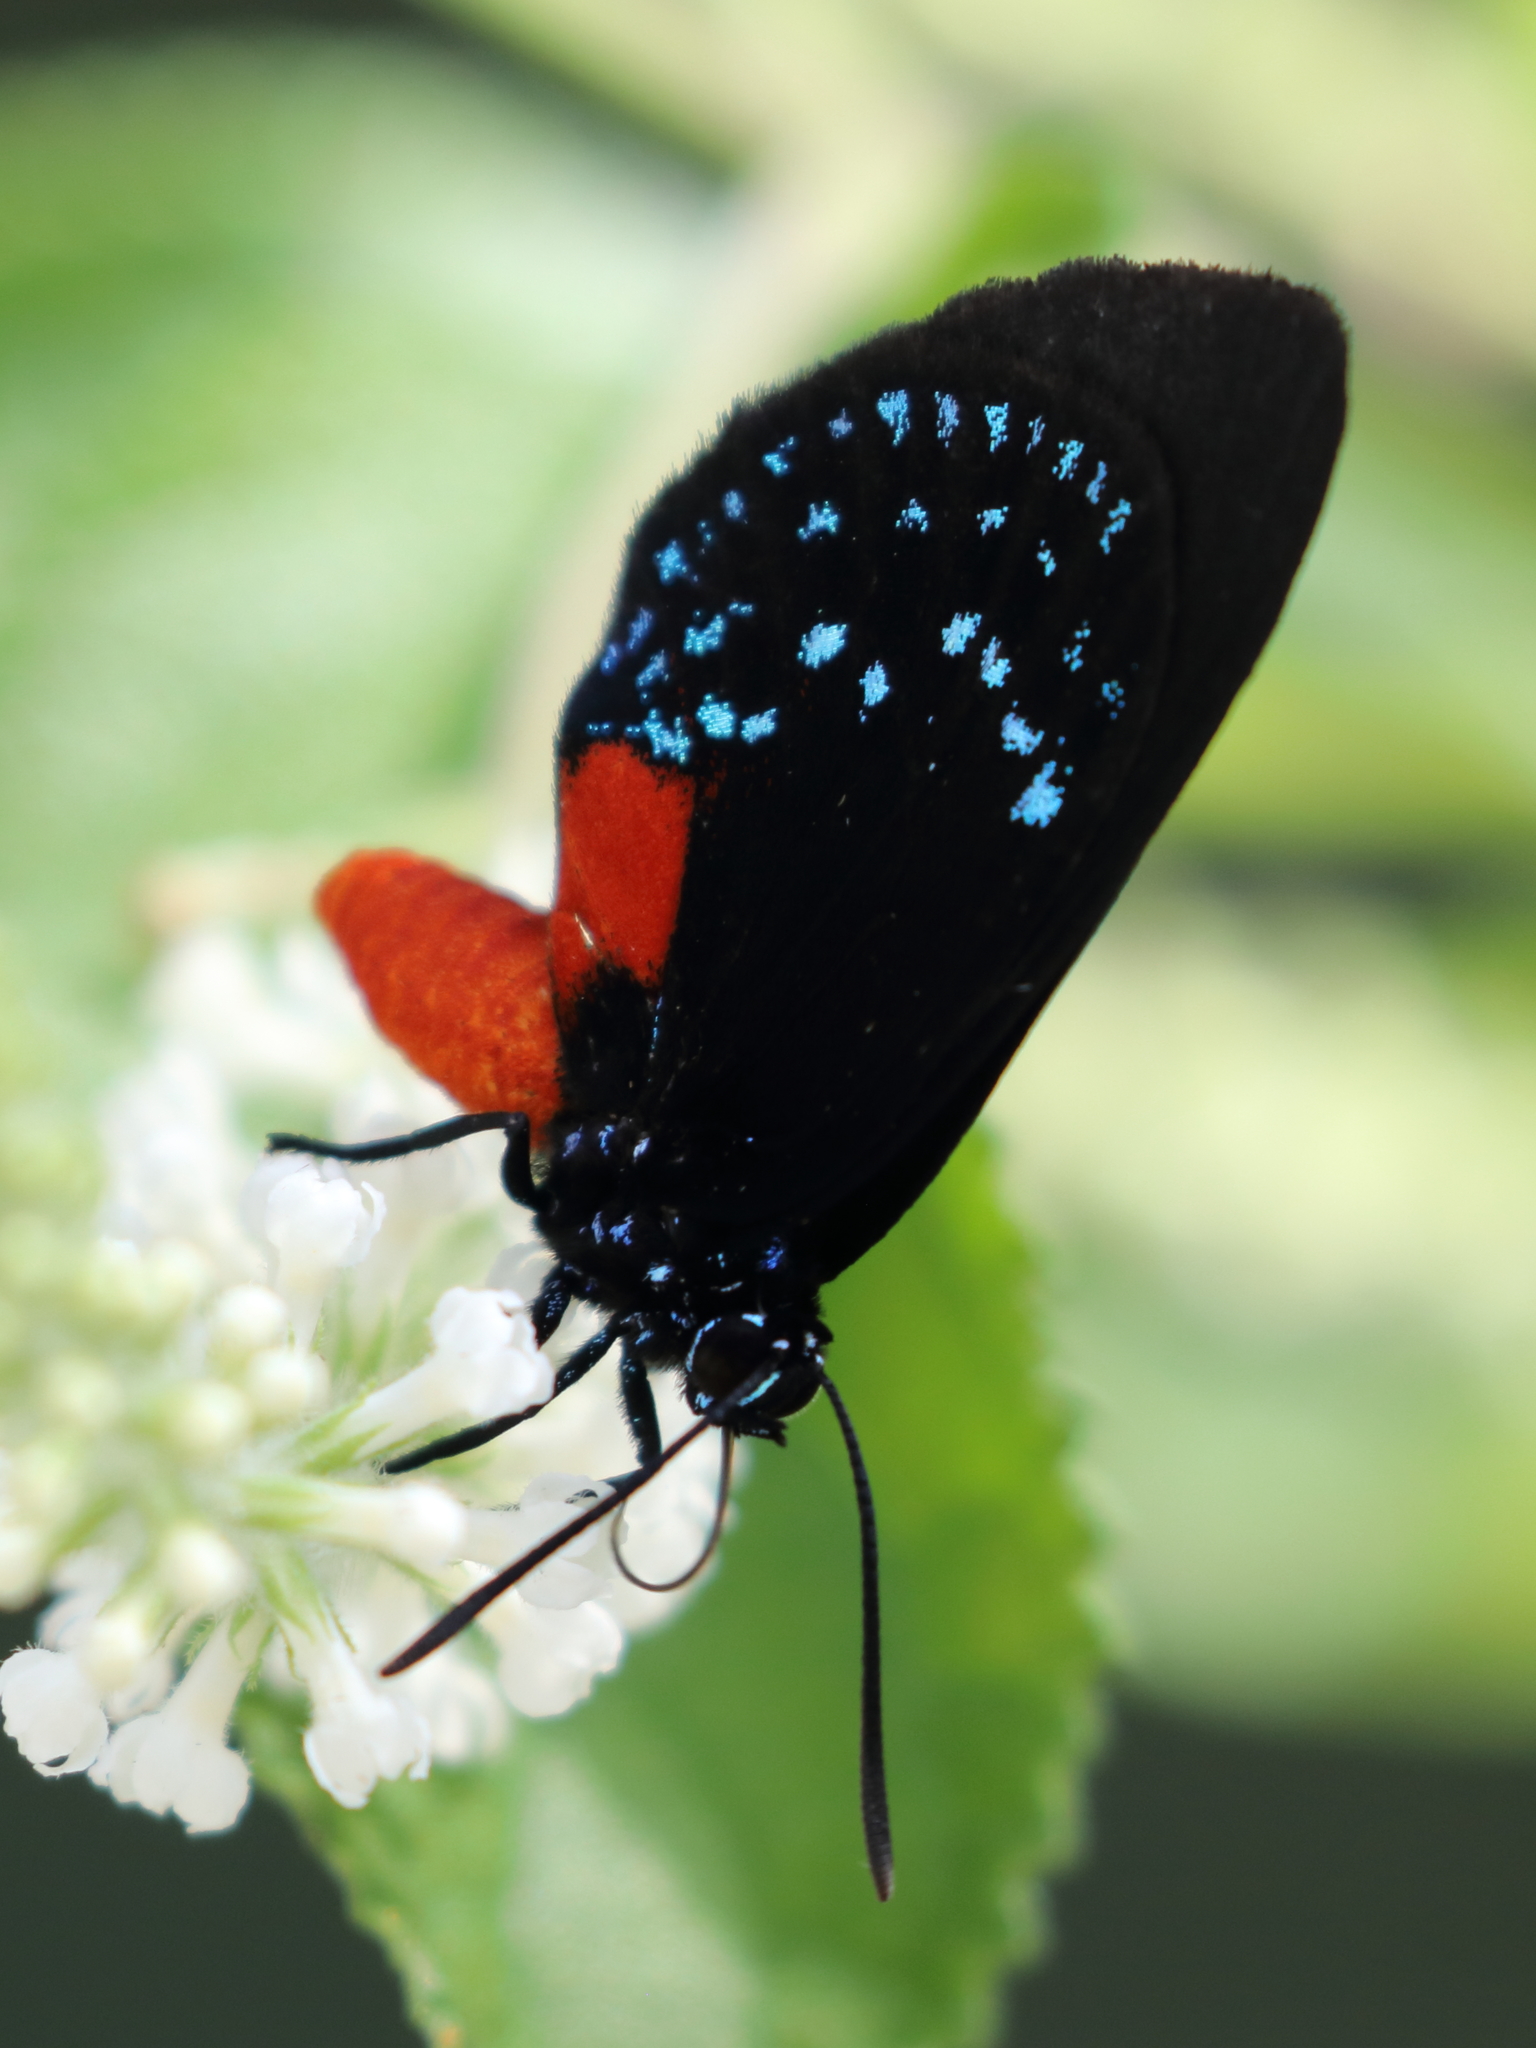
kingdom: Animalia
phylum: Arthropoda
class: Insecta
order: Lepidoptera
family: Lycaenidae
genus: Eumaeus
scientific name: Eumaeus atala
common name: Atala
